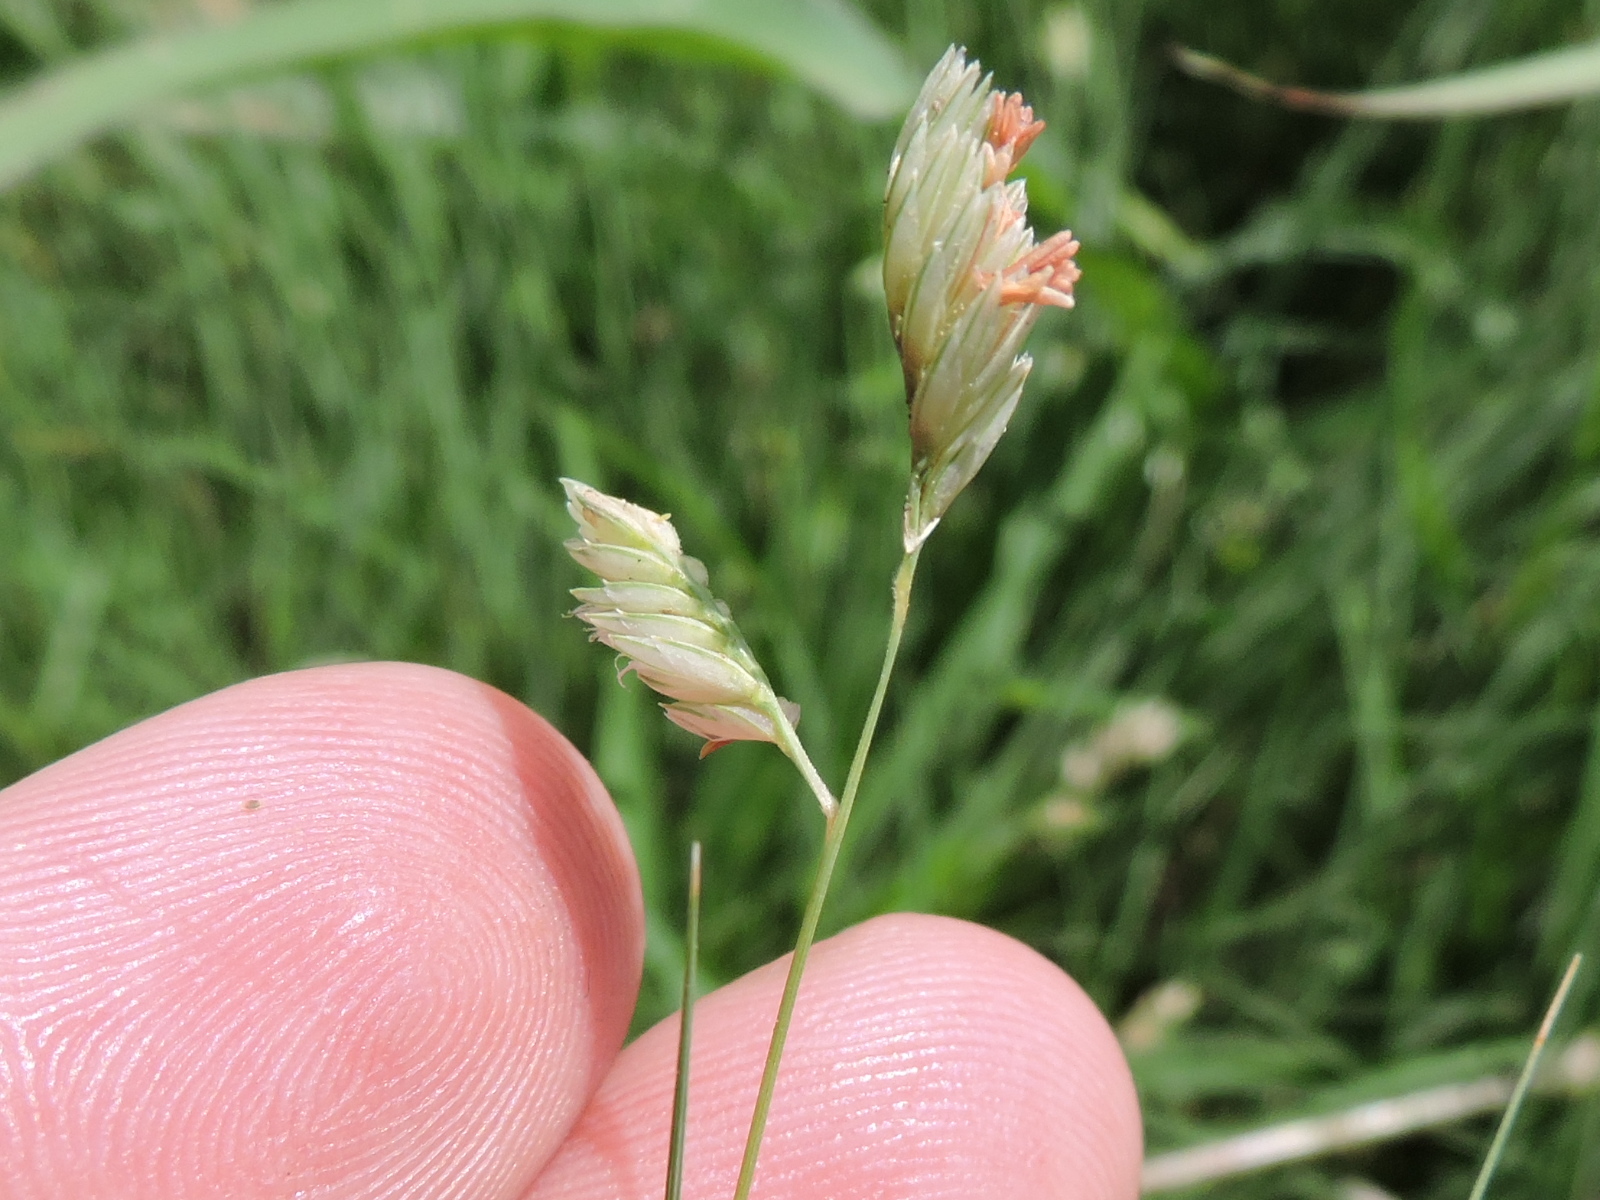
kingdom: Plantae
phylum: Tracheophyta
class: Liliopsida
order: Poales
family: Poaceae
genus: Bouteloua
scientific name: Bouteloua dactyloides
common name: Buffalo grass
